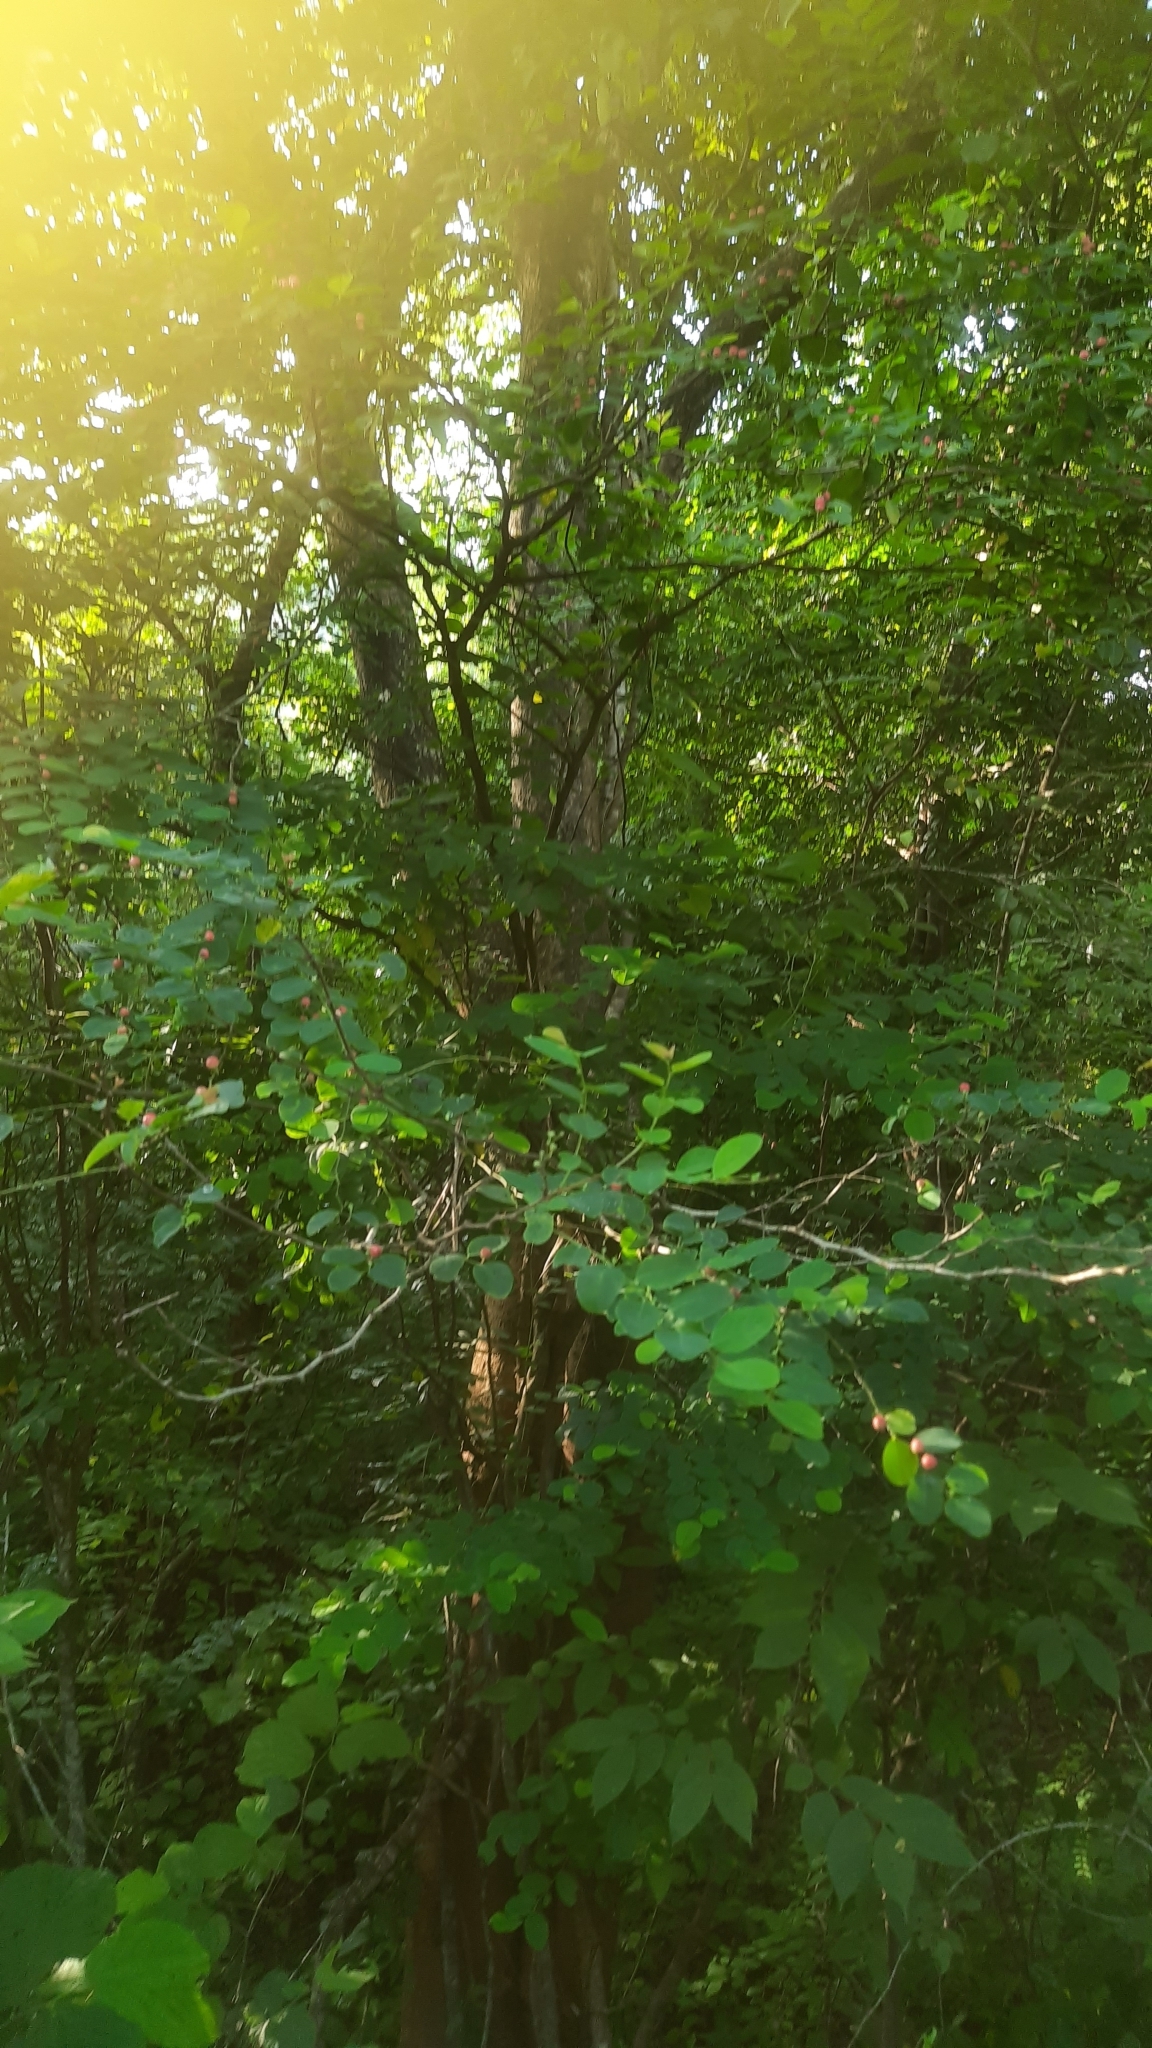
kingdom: Plantae
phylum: Tracheophyta
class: Magnoliopsida
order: Malpighiales
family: Phyllanthaceae
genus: Breynia
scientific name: Breynia vitis-idaea
